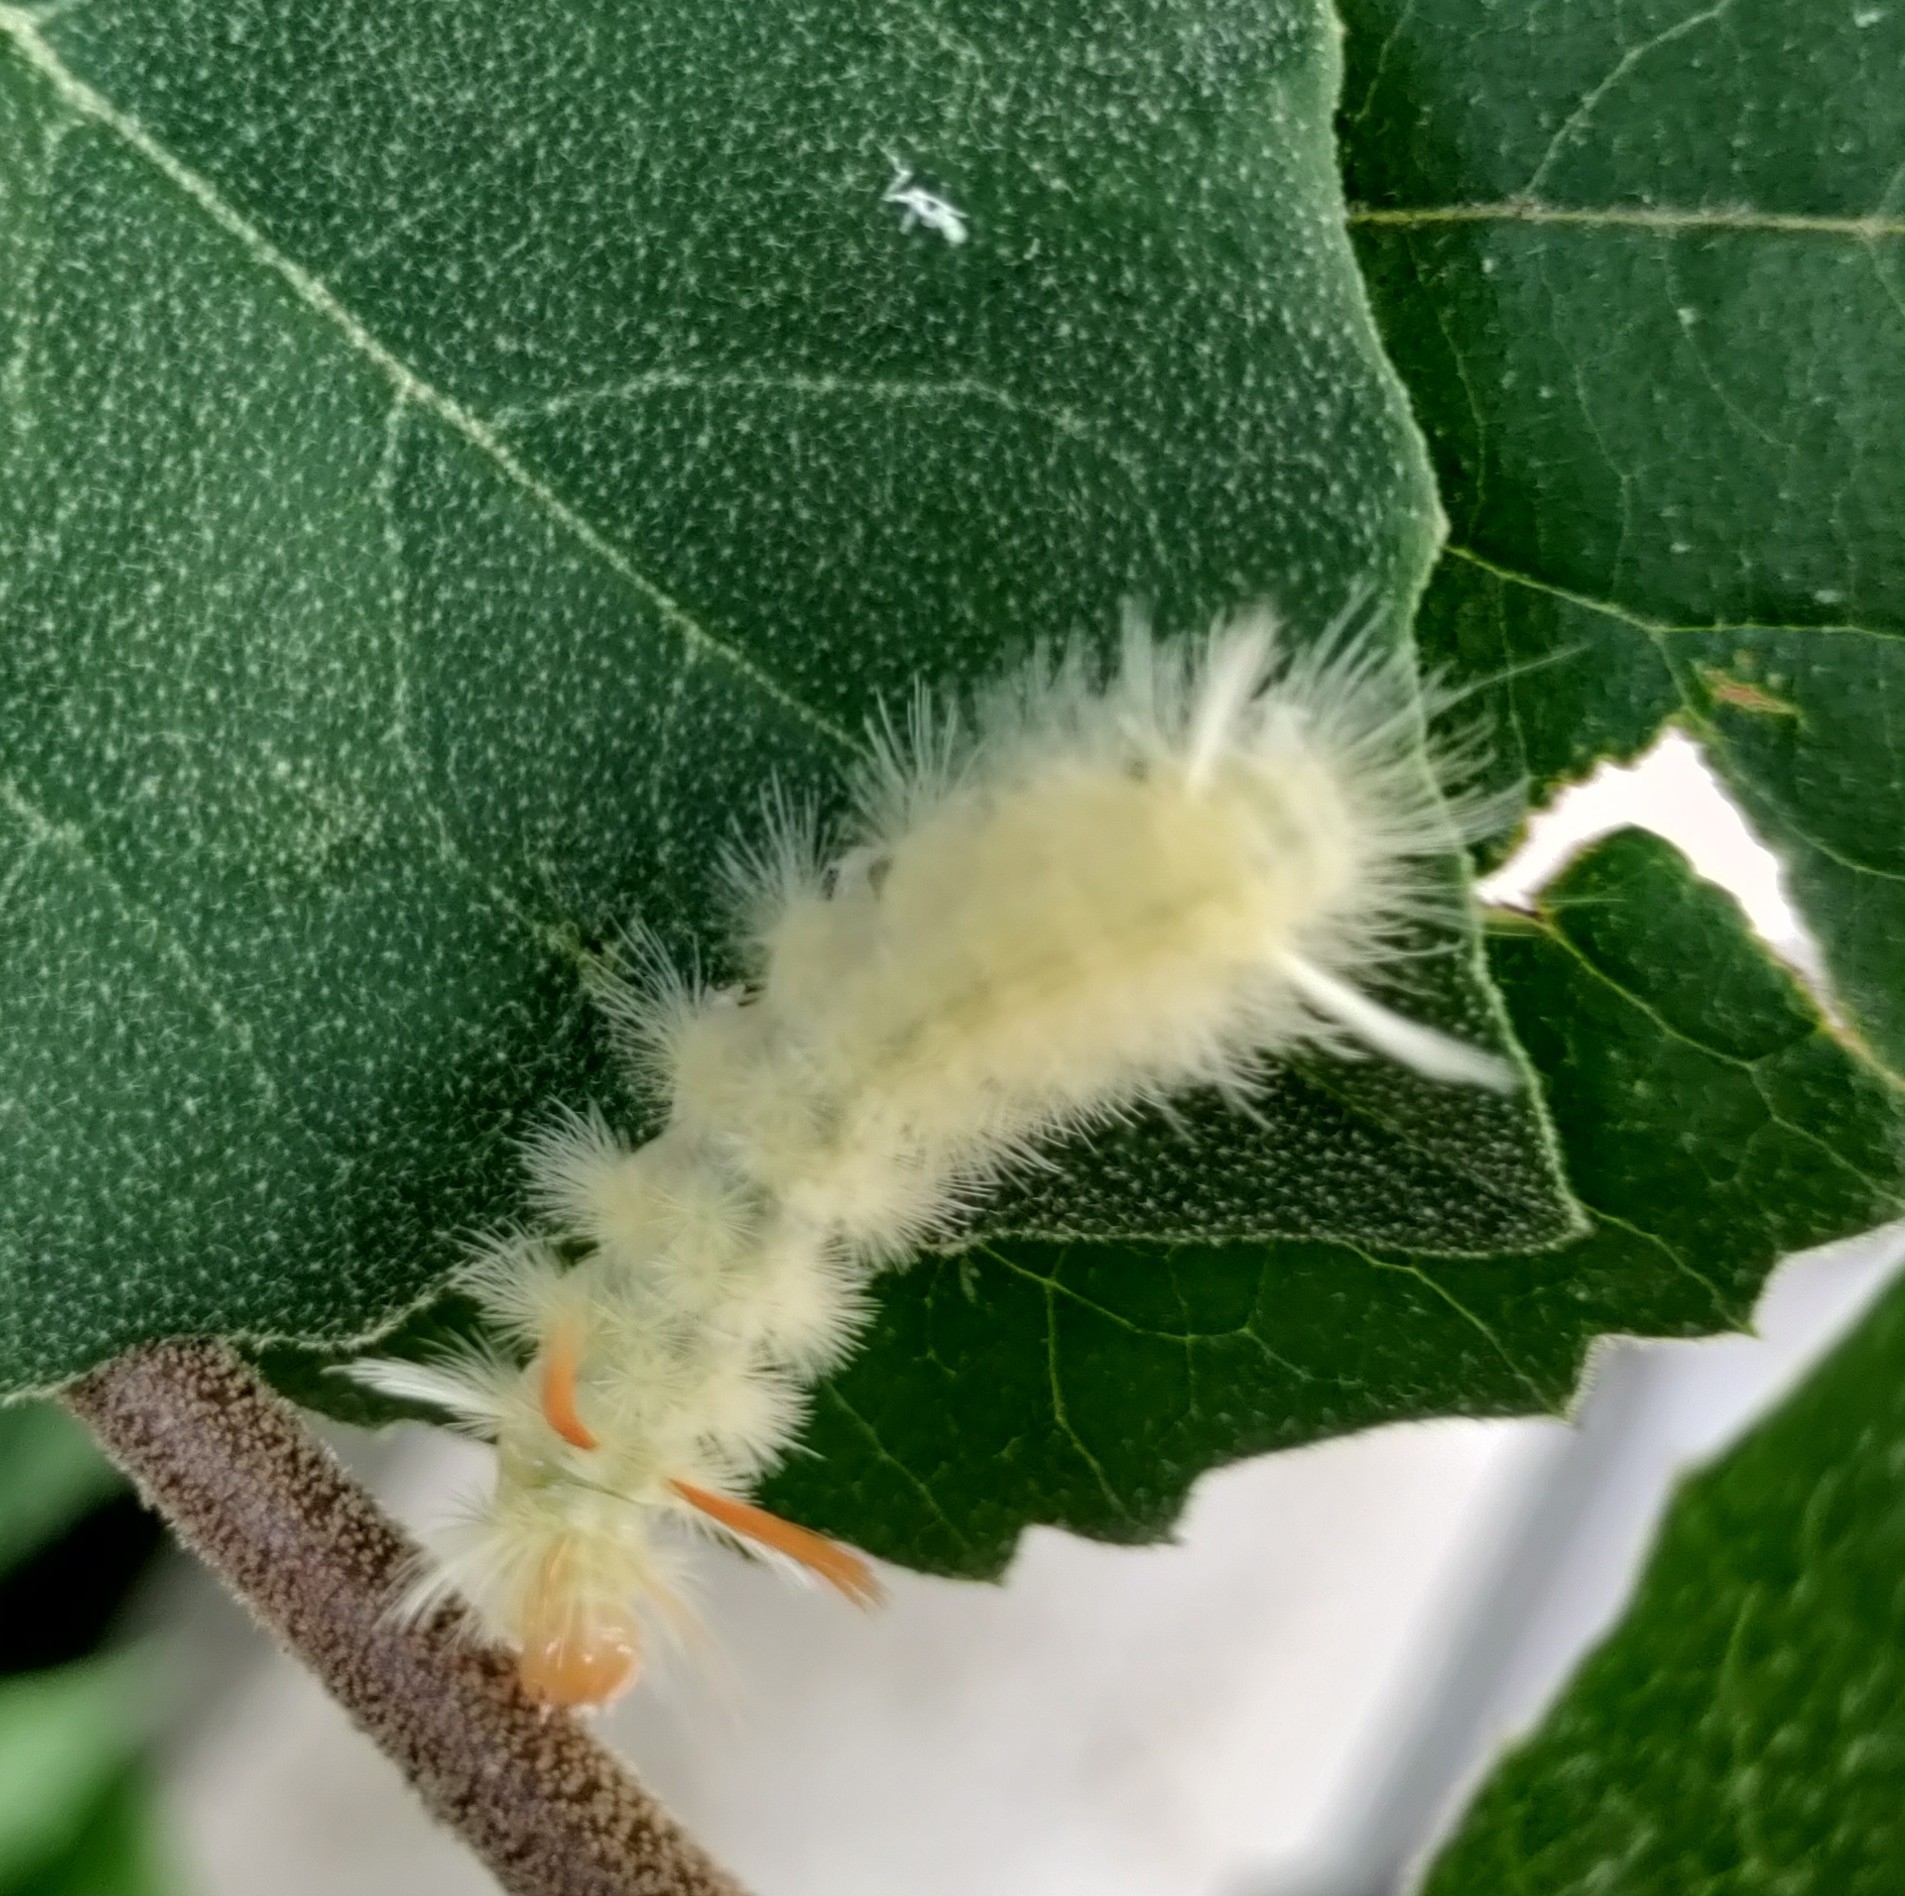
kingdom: Animalia
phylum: Arthropoda
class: Insecta
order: Lepidoptera
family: Erebidae
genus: Halysidota
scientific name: Halysidota harrisii
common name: Sycamore tussock moth
